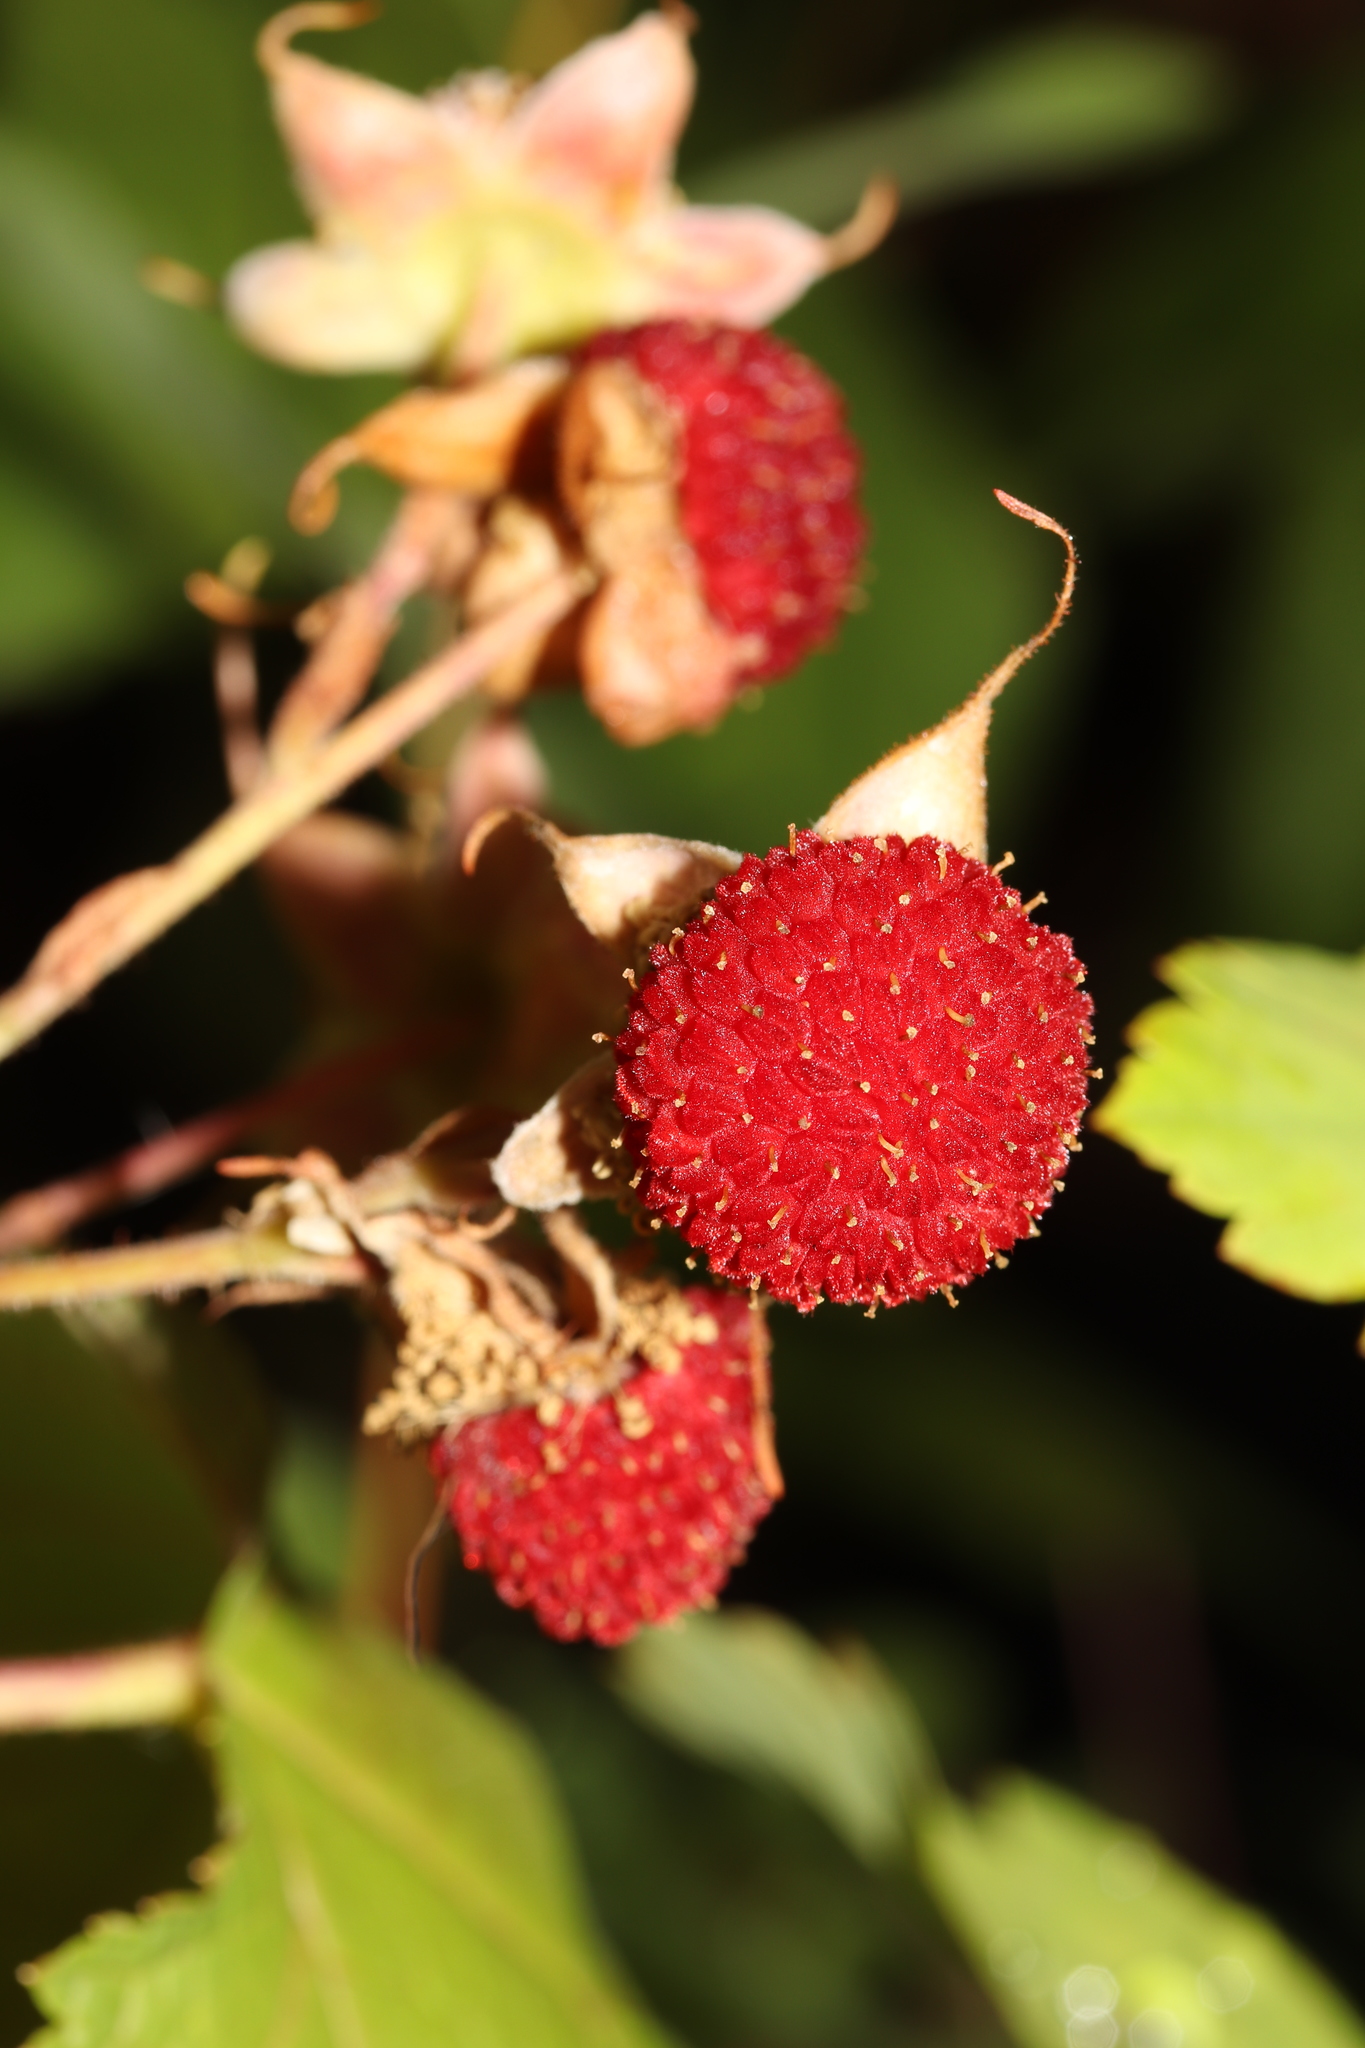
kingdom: Plantae
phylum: Tracheophyta
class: Magnoliopsida
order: Rosales
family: Rosaceae
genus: Rubus
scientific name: Rubus parviflorus
